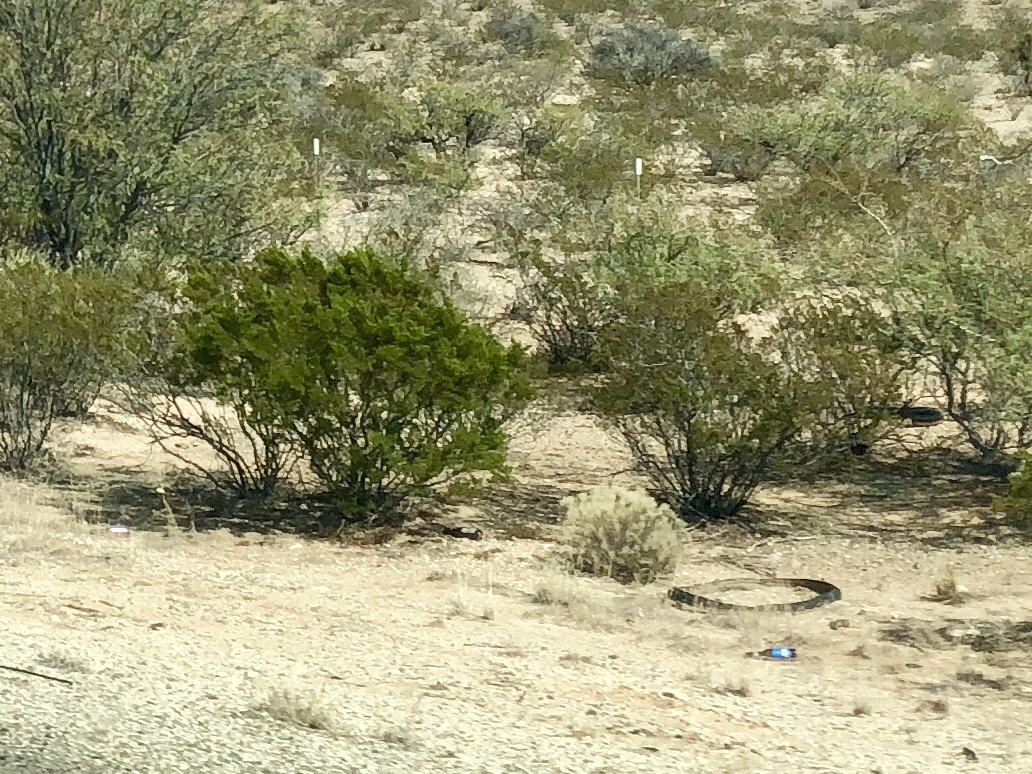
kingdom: Plantae
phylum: Tracheophyta
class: Magnoliopsida
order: Zygophyllales
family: Zygophyllaceae
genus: Larrea
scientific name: Larrea tridentata
